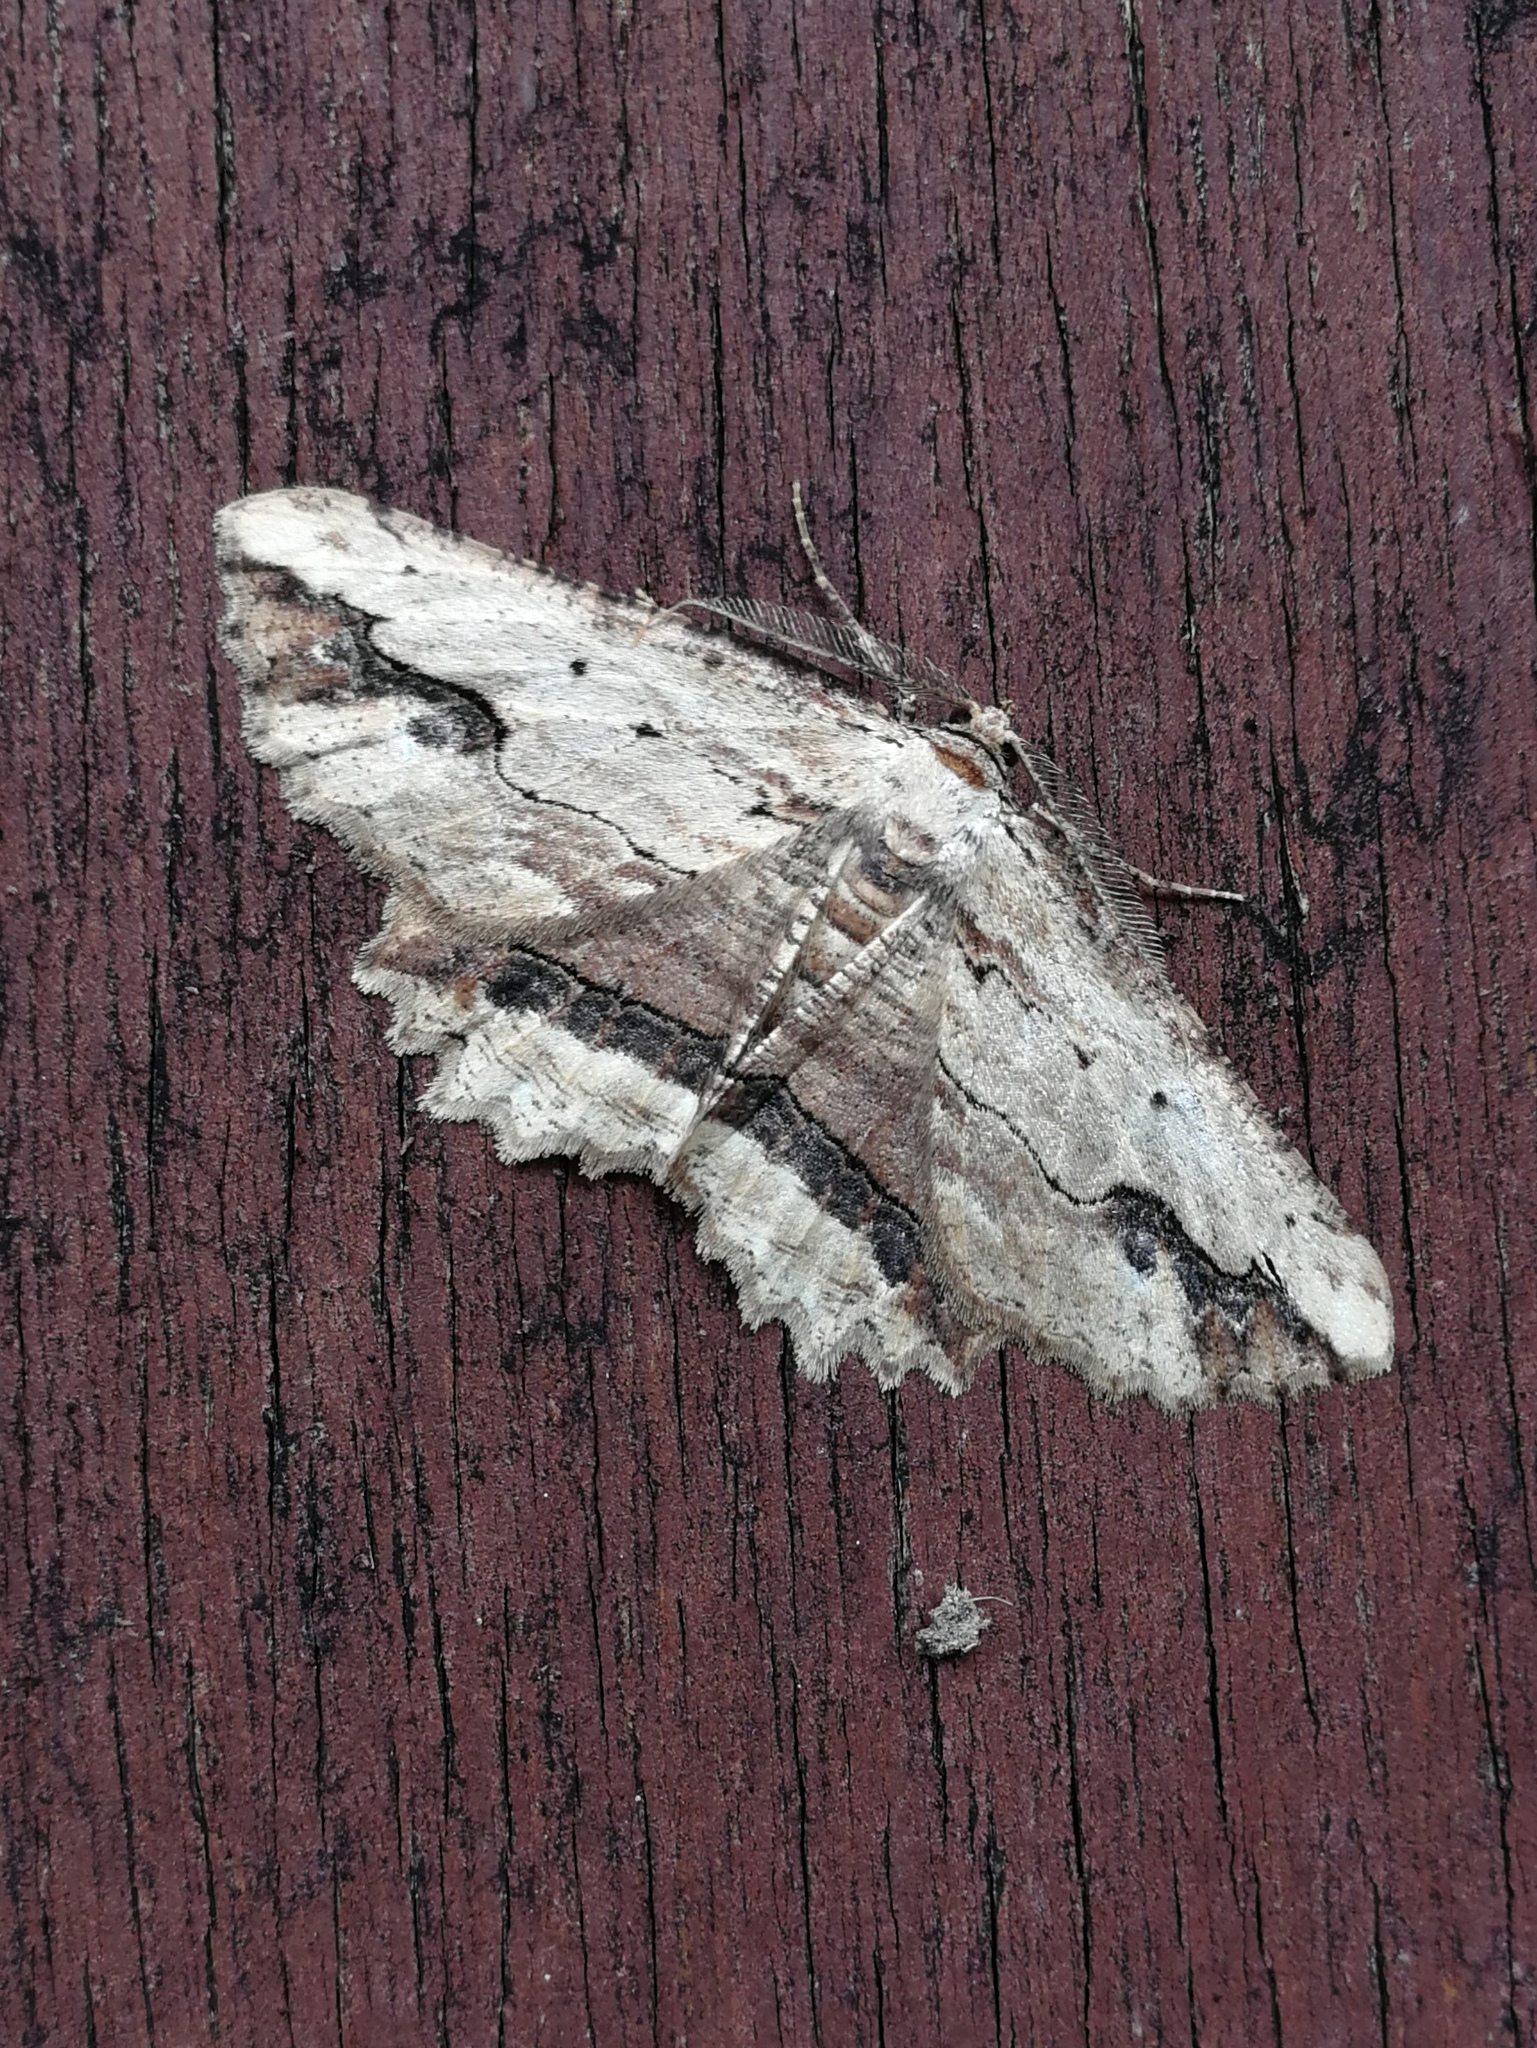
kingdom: Animalia
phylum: Arthropoda
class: Insecta
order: Lepidoptera
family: Geometridae
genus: Menophra
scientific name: Menophra abruptaria
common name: Waved umber
